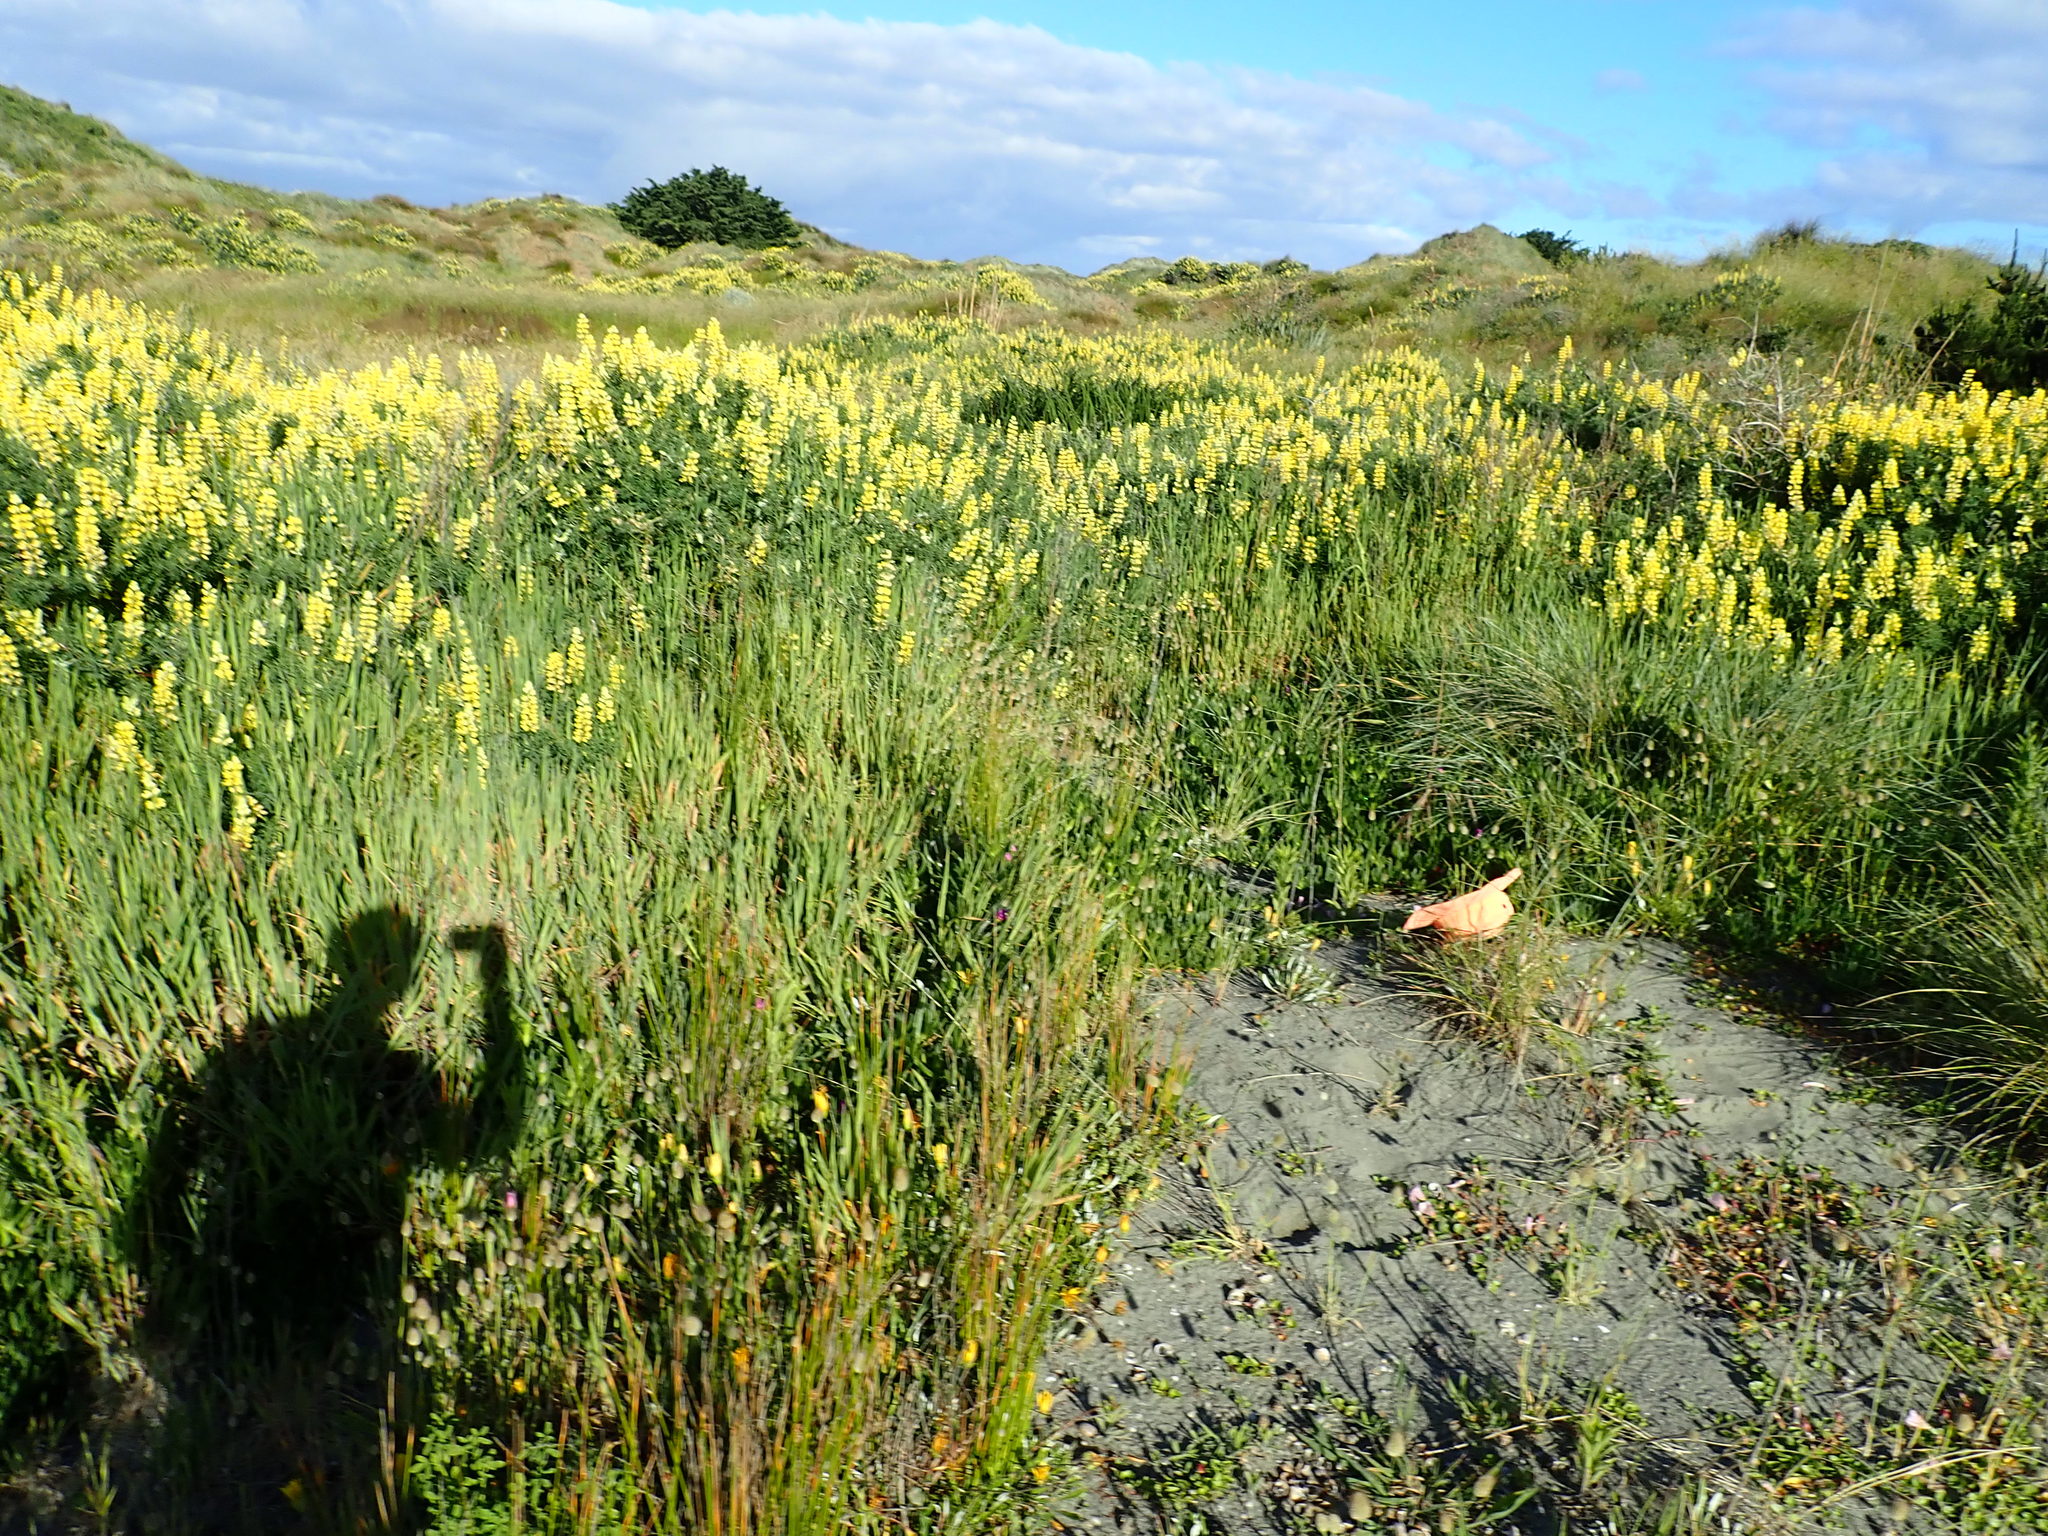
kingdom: Plantae
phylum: Tracheophyta
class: Magnoliopsida
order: Solanales
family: Convolvulaceae
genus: Calystegia
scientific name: Calystegia soldanella
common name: Sea bindweed
